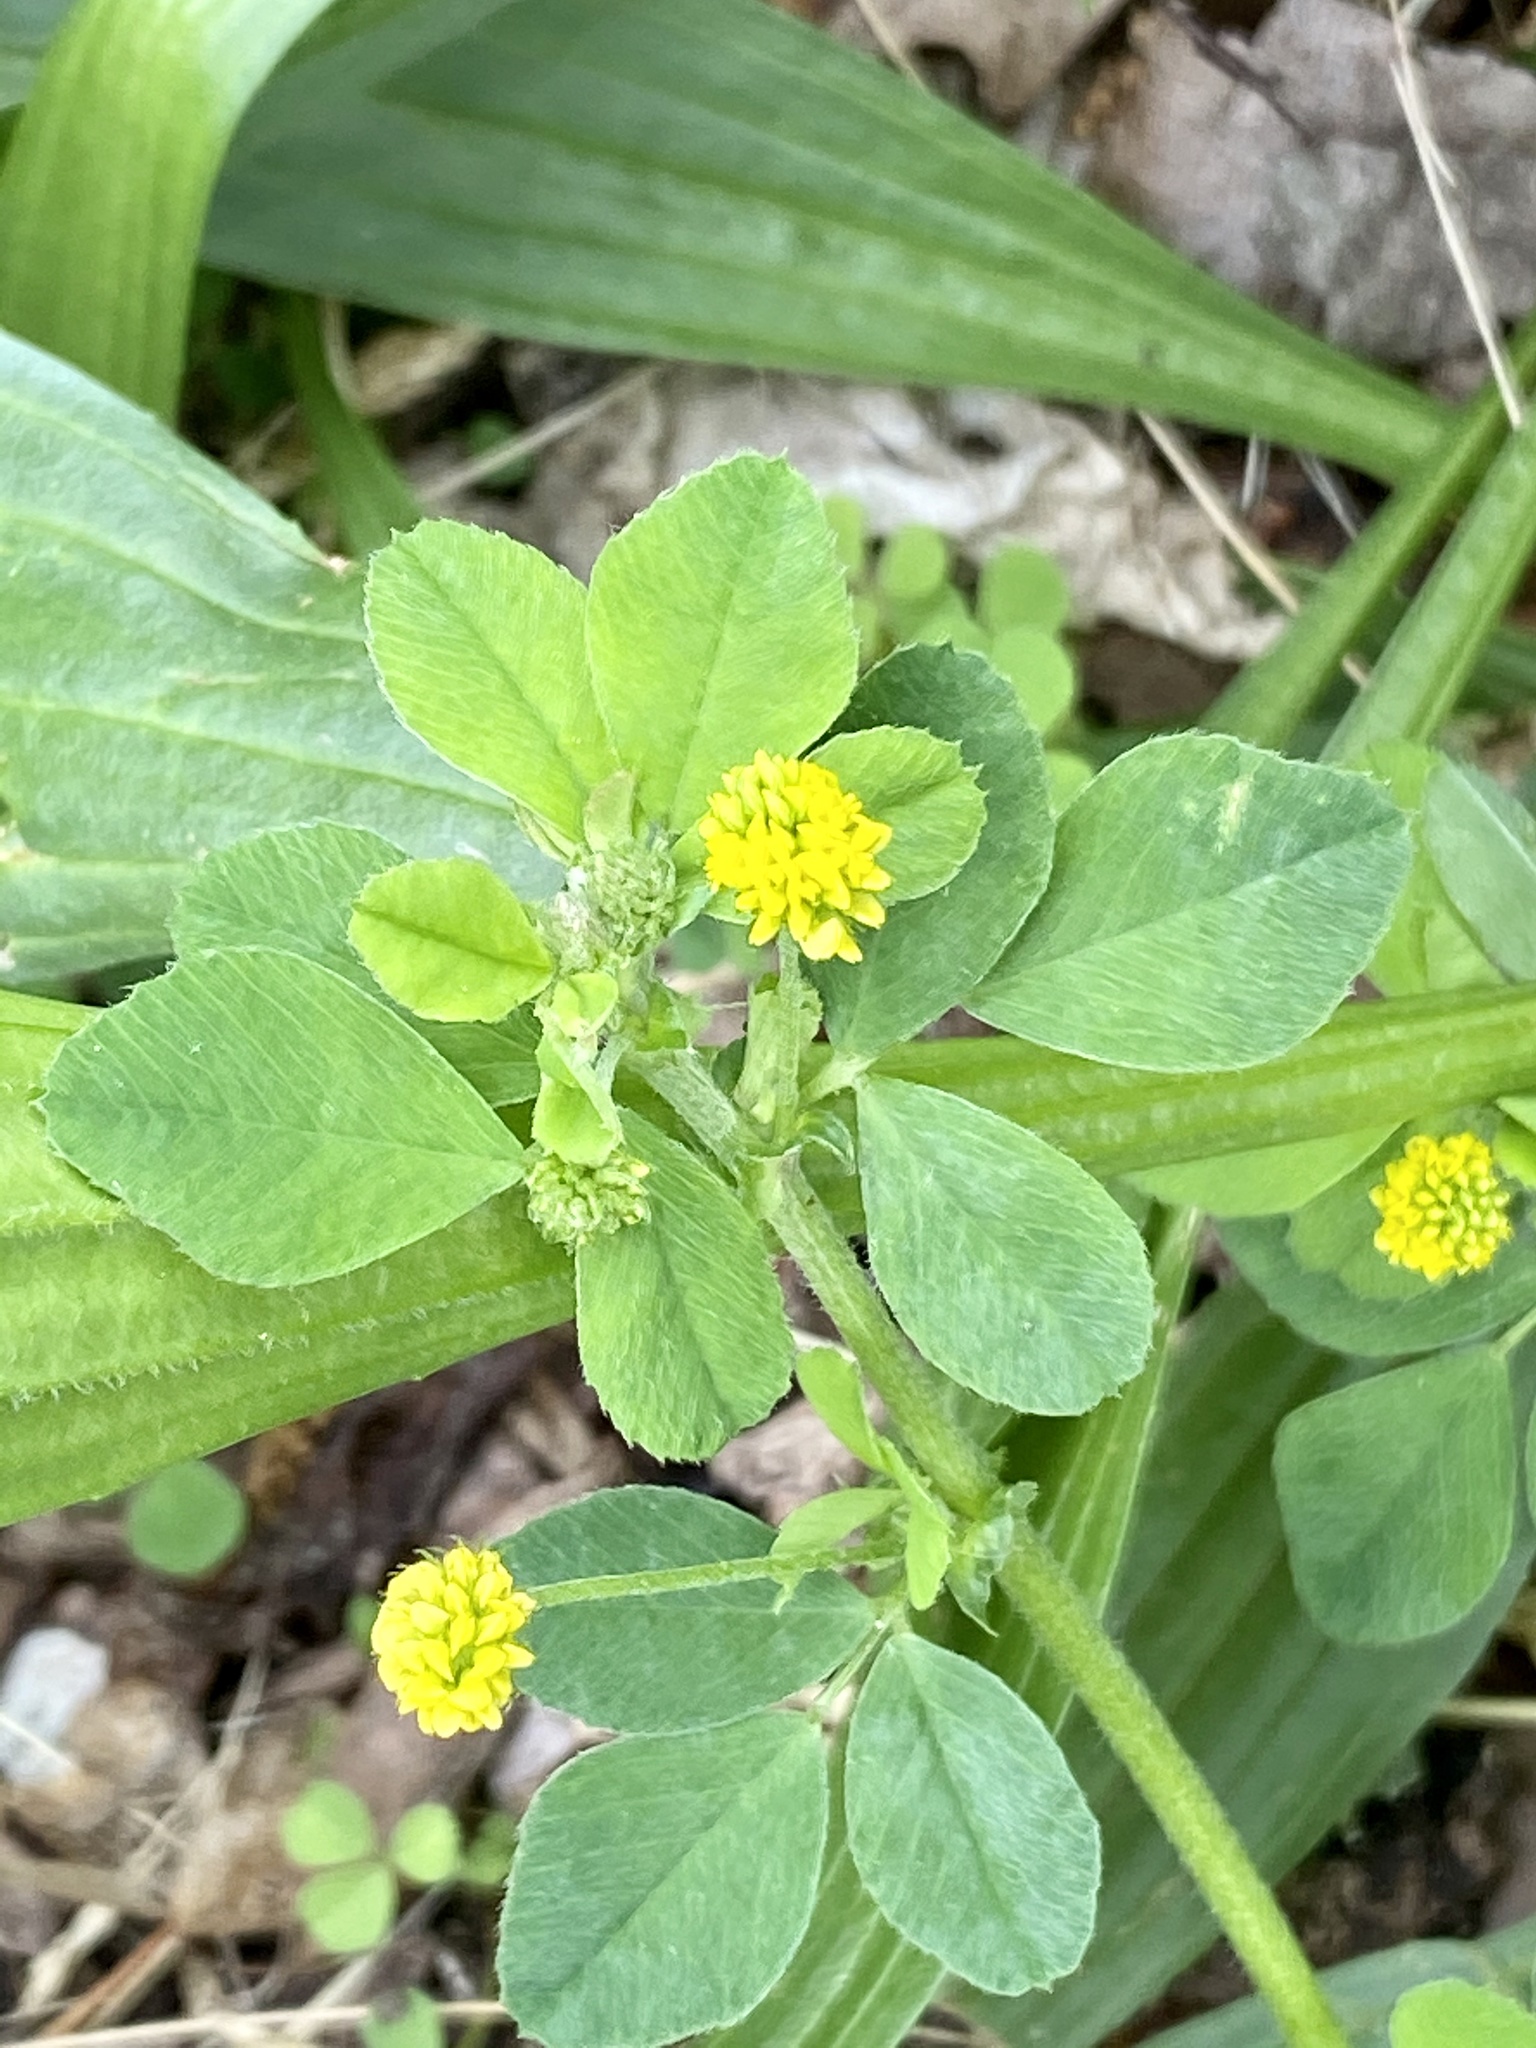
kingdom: Plantae
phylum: Tracheophyta
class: Magnoliopsida
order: Fabales
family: Fabaceae
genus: Medicago
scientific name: Medicago lupulina
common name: Black medick
